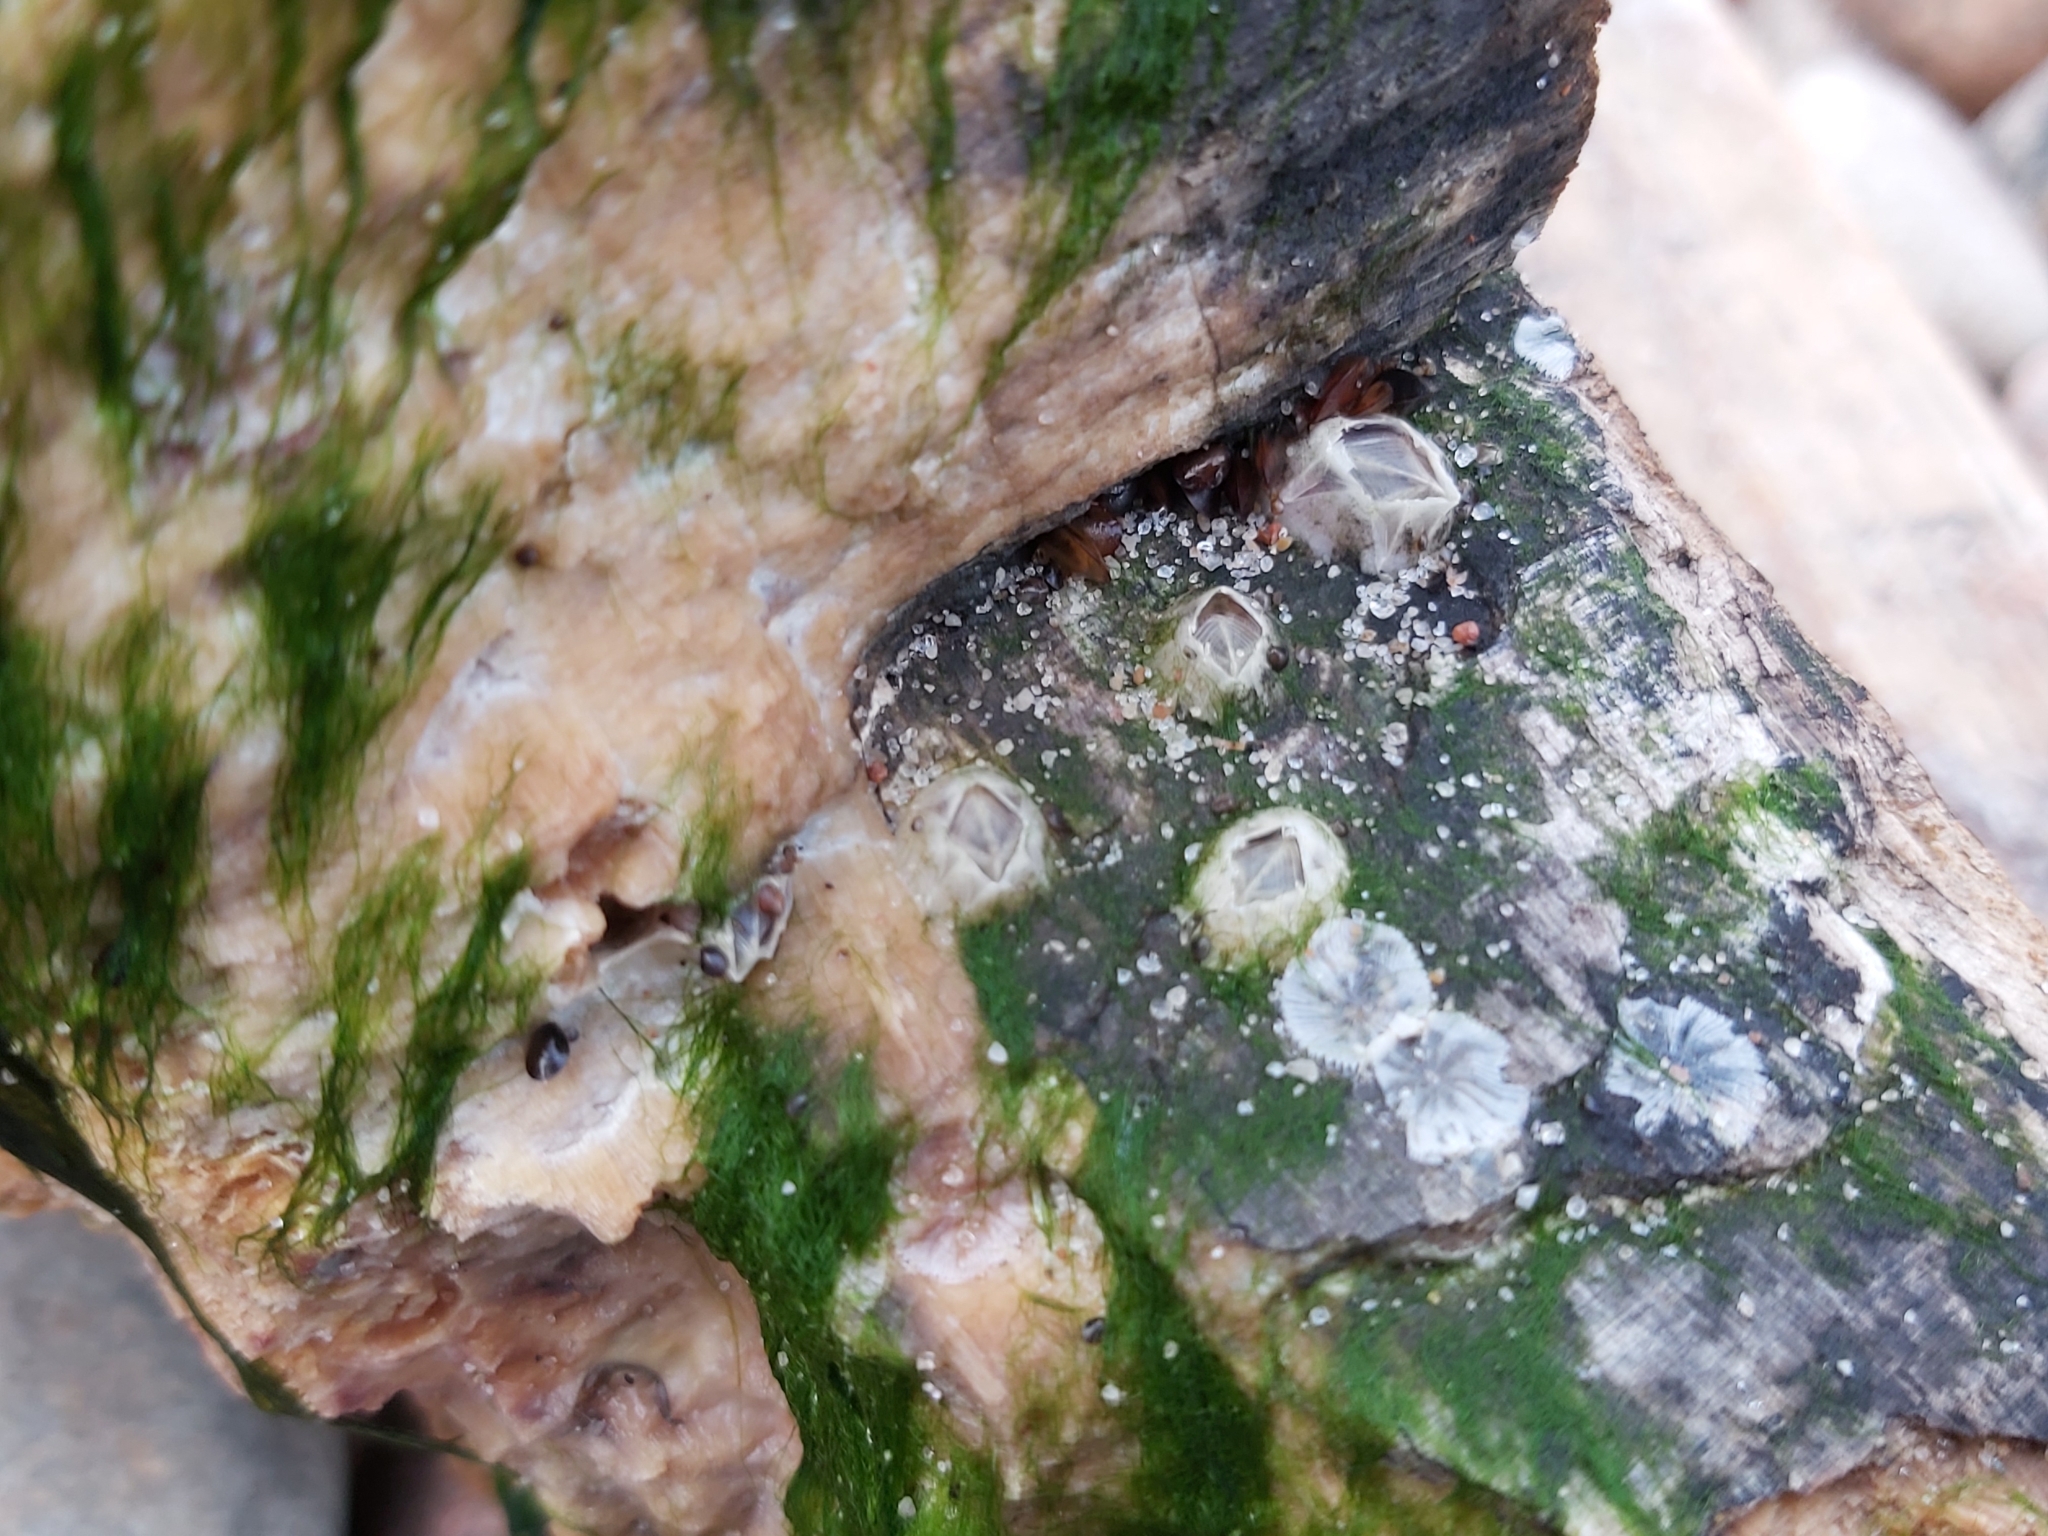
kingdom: Animalia
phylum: Arthropoda
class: Maxillopoda
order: Sessilia
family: Balanidae
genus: Amphibalanus
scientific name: Amphibalanus improvisus
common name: Bay barnacle
